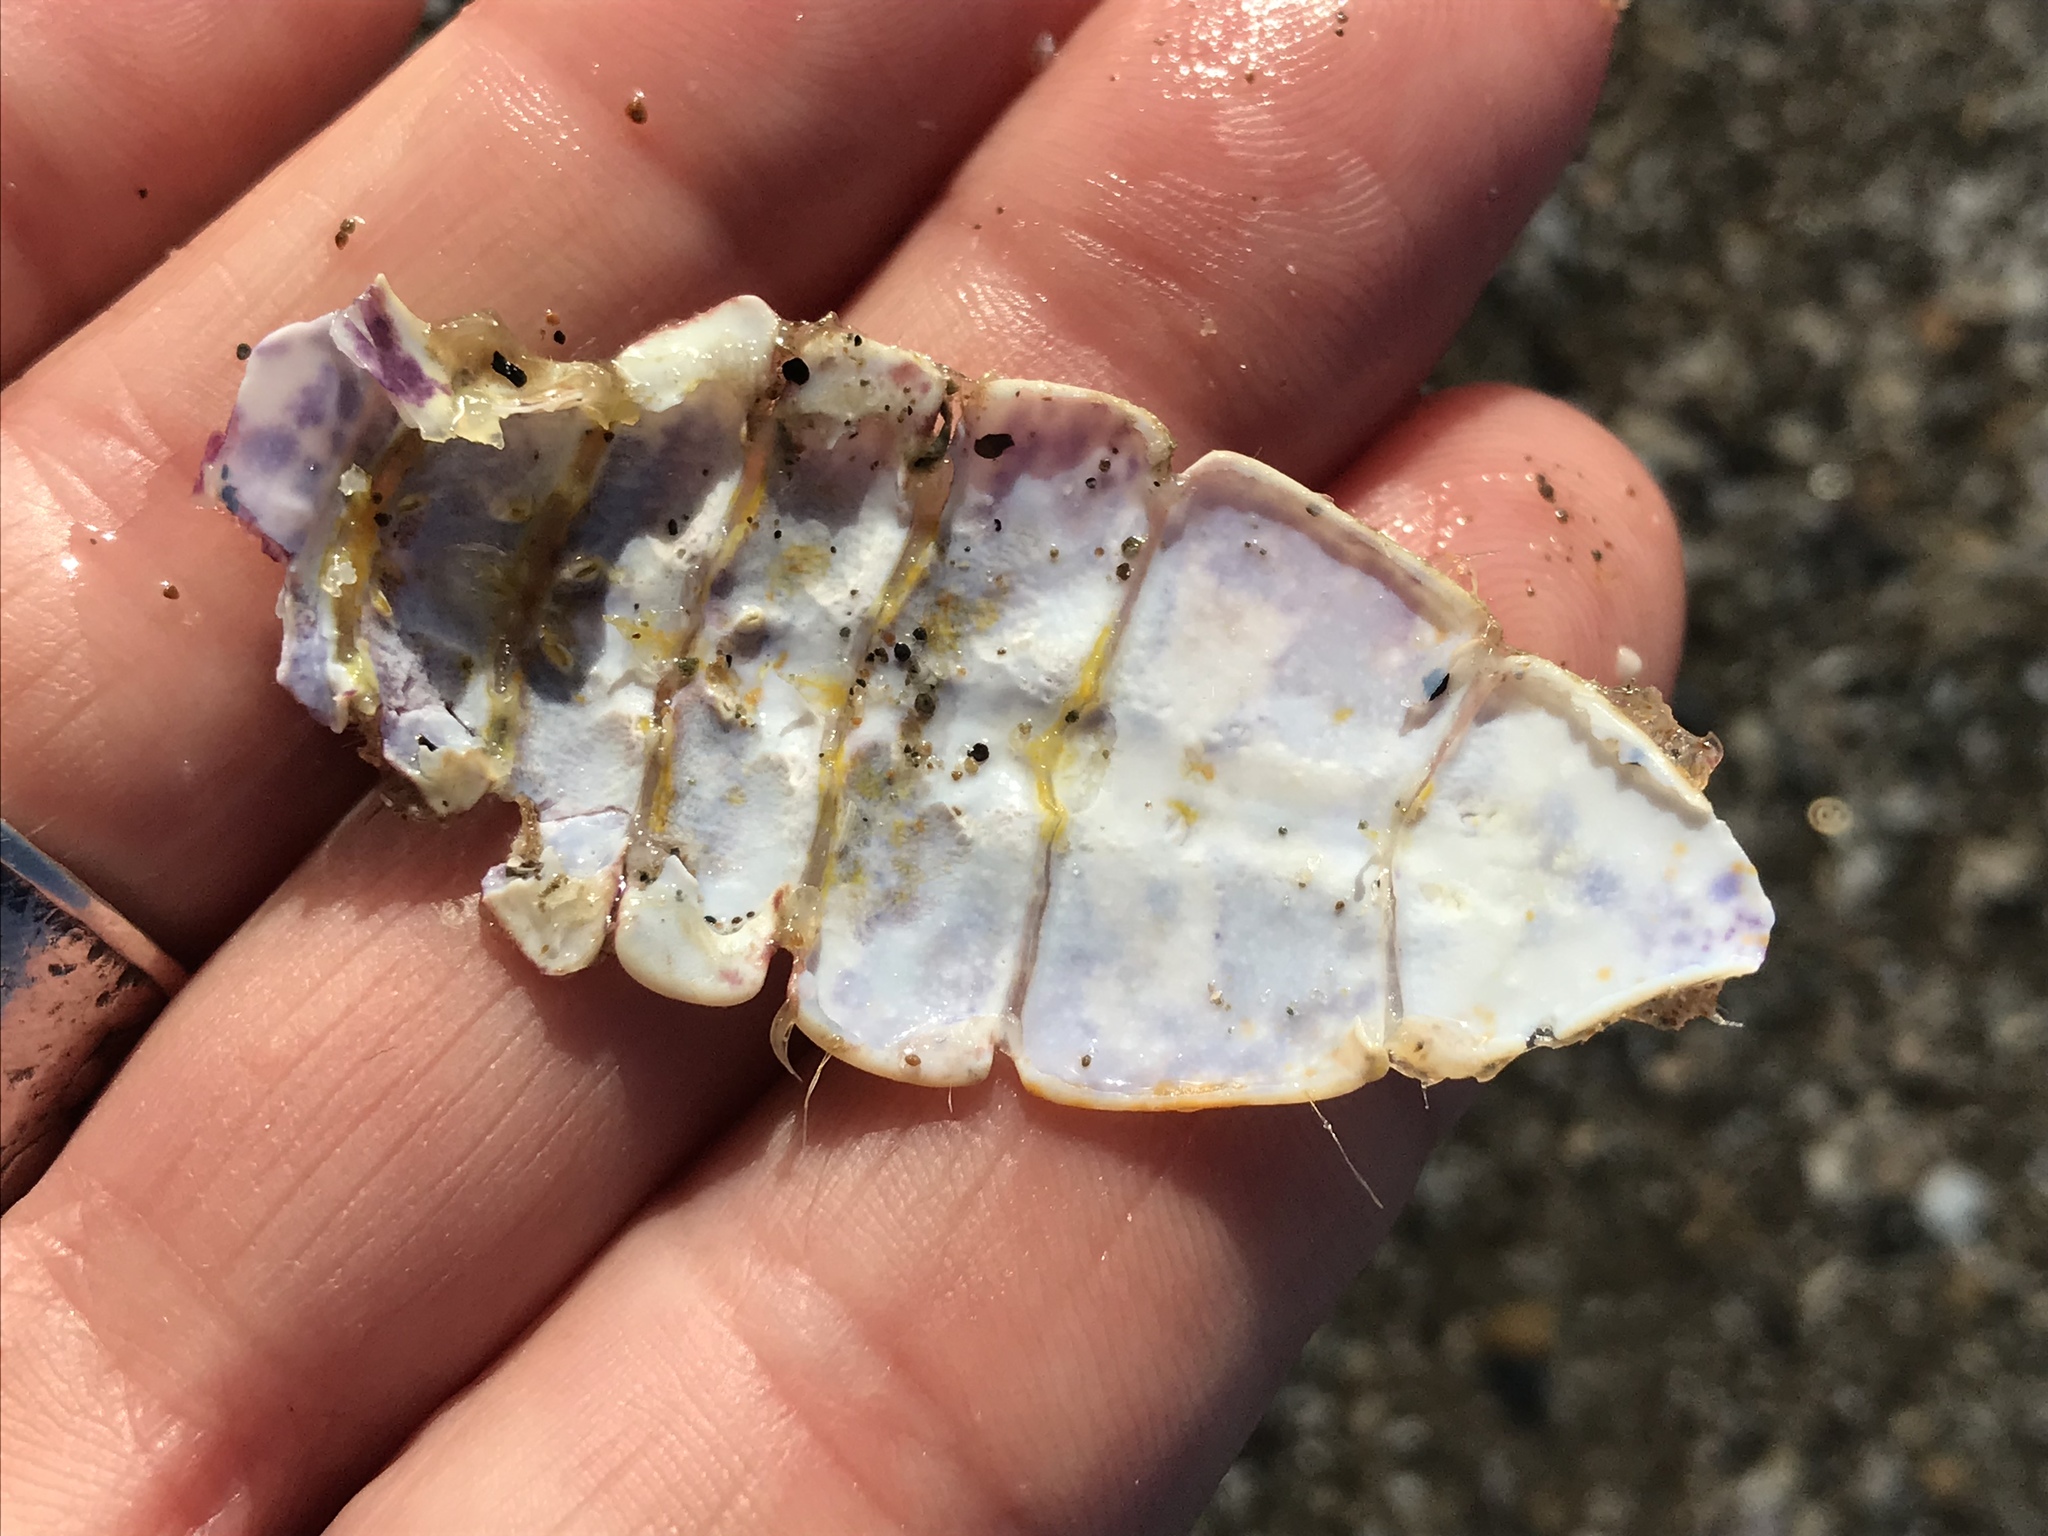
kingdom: Animalia
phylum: Arthropoda
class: Malacostraca
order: Decapoda
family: Cancridae
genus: Romaleon
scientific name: Romaleon antennarium
